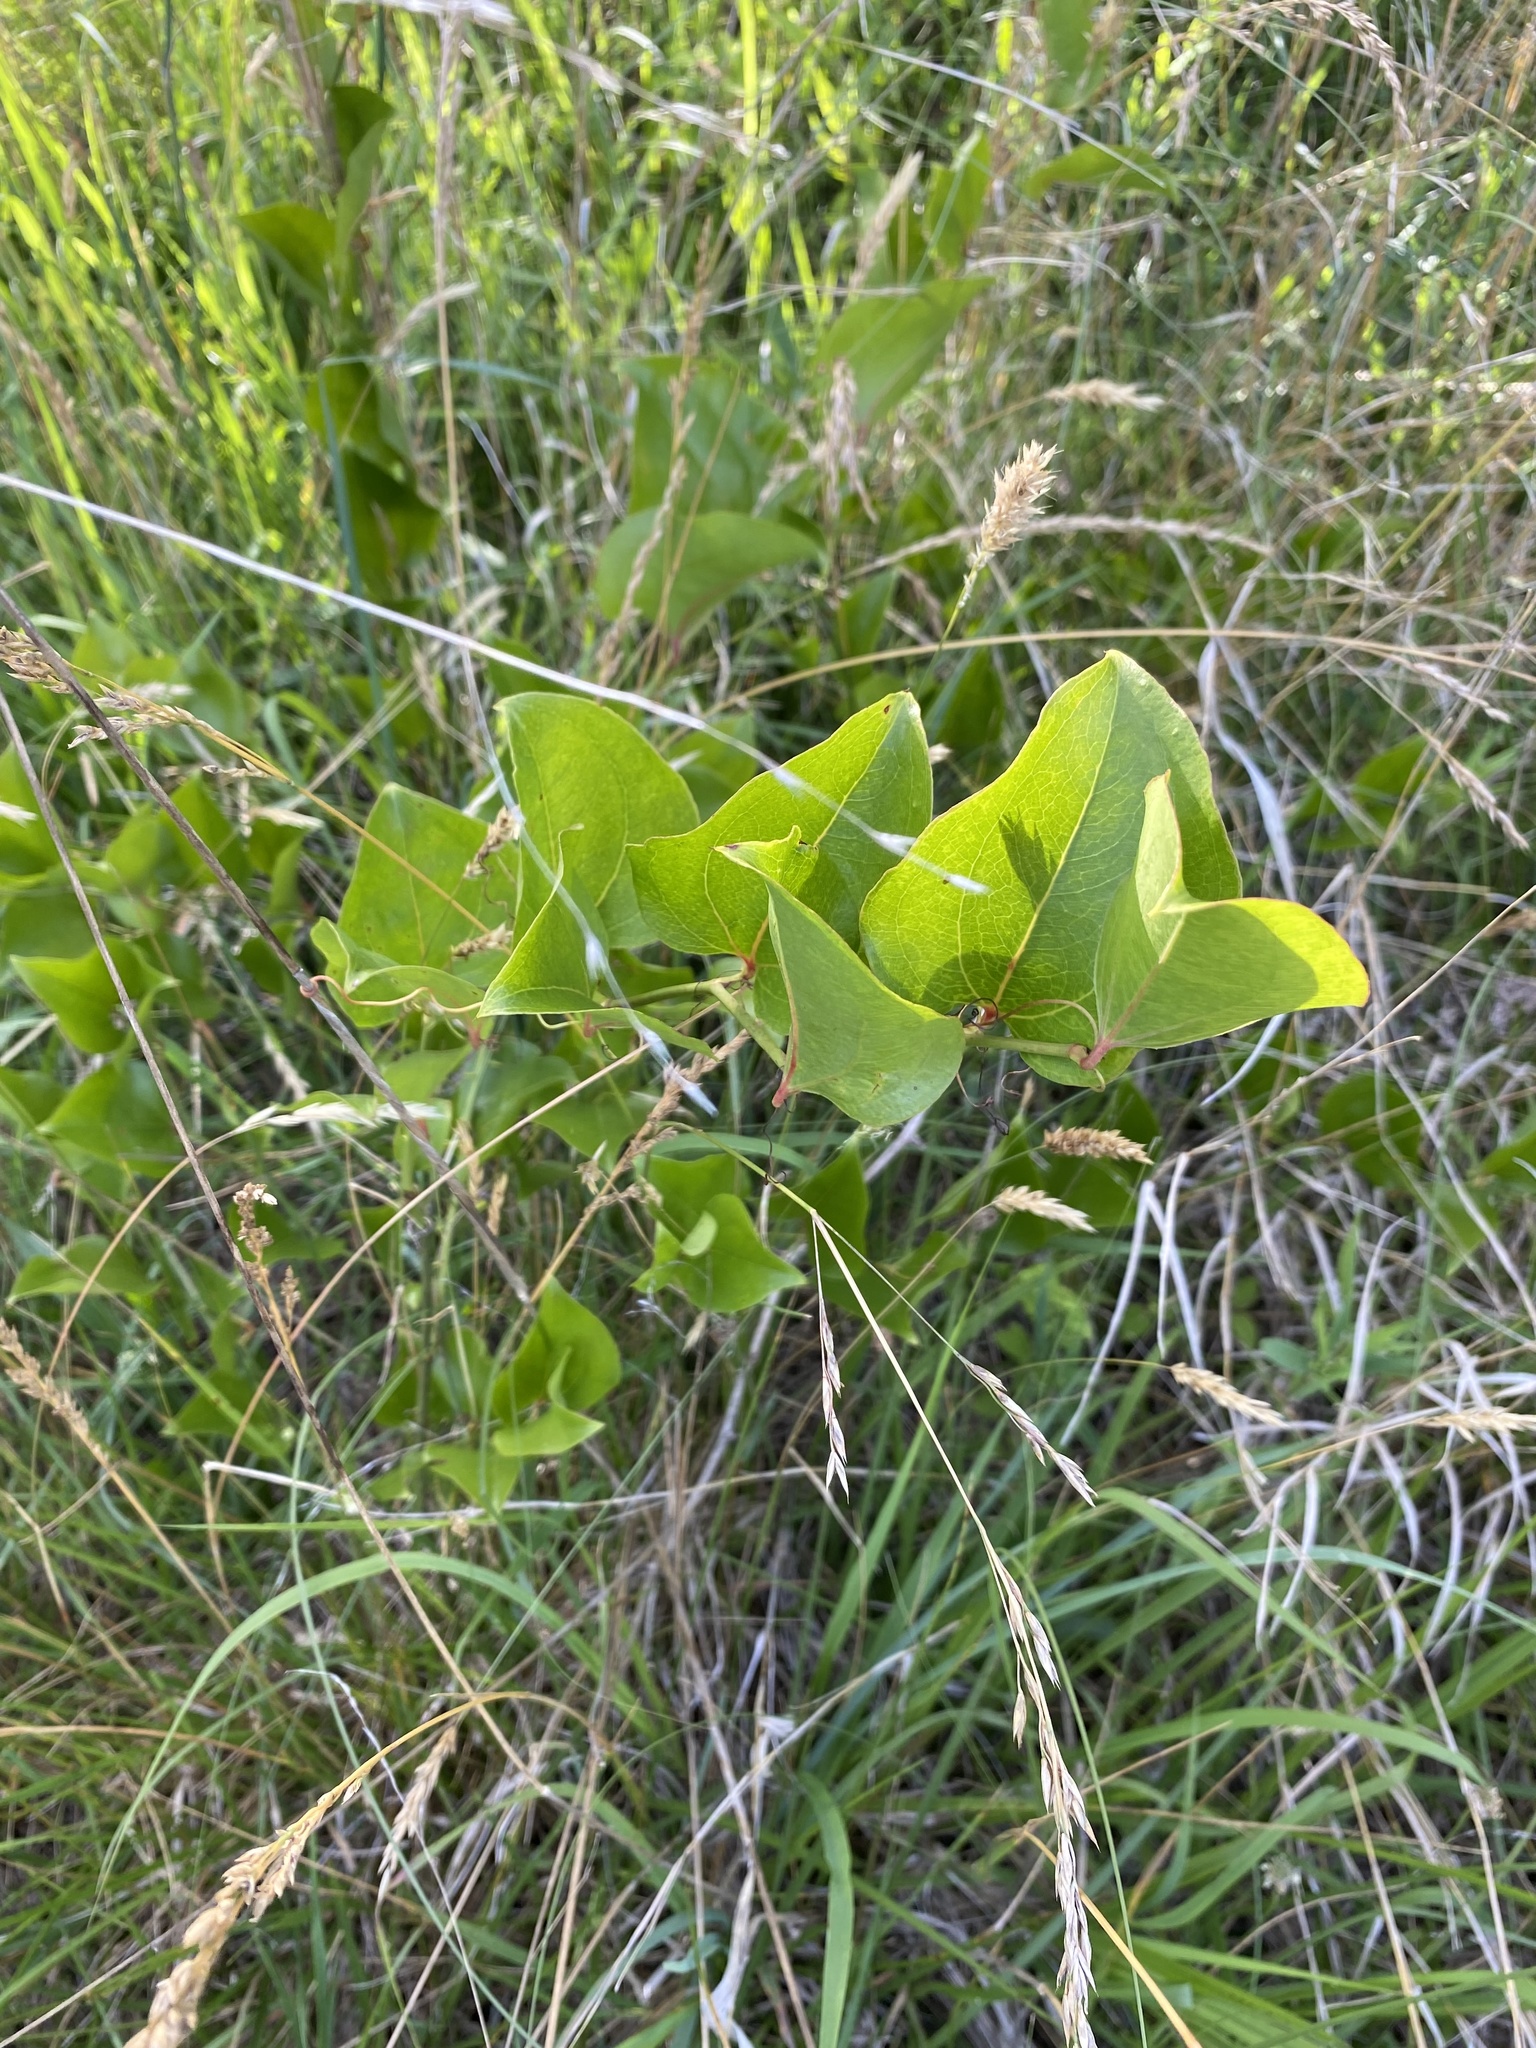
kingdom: Plantae
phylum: Tracheophyta
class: Liliopsida
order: Liliales
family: Smilacaceae
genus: Smilax
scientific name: Smilax rotundifolia
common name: Bullbriar
